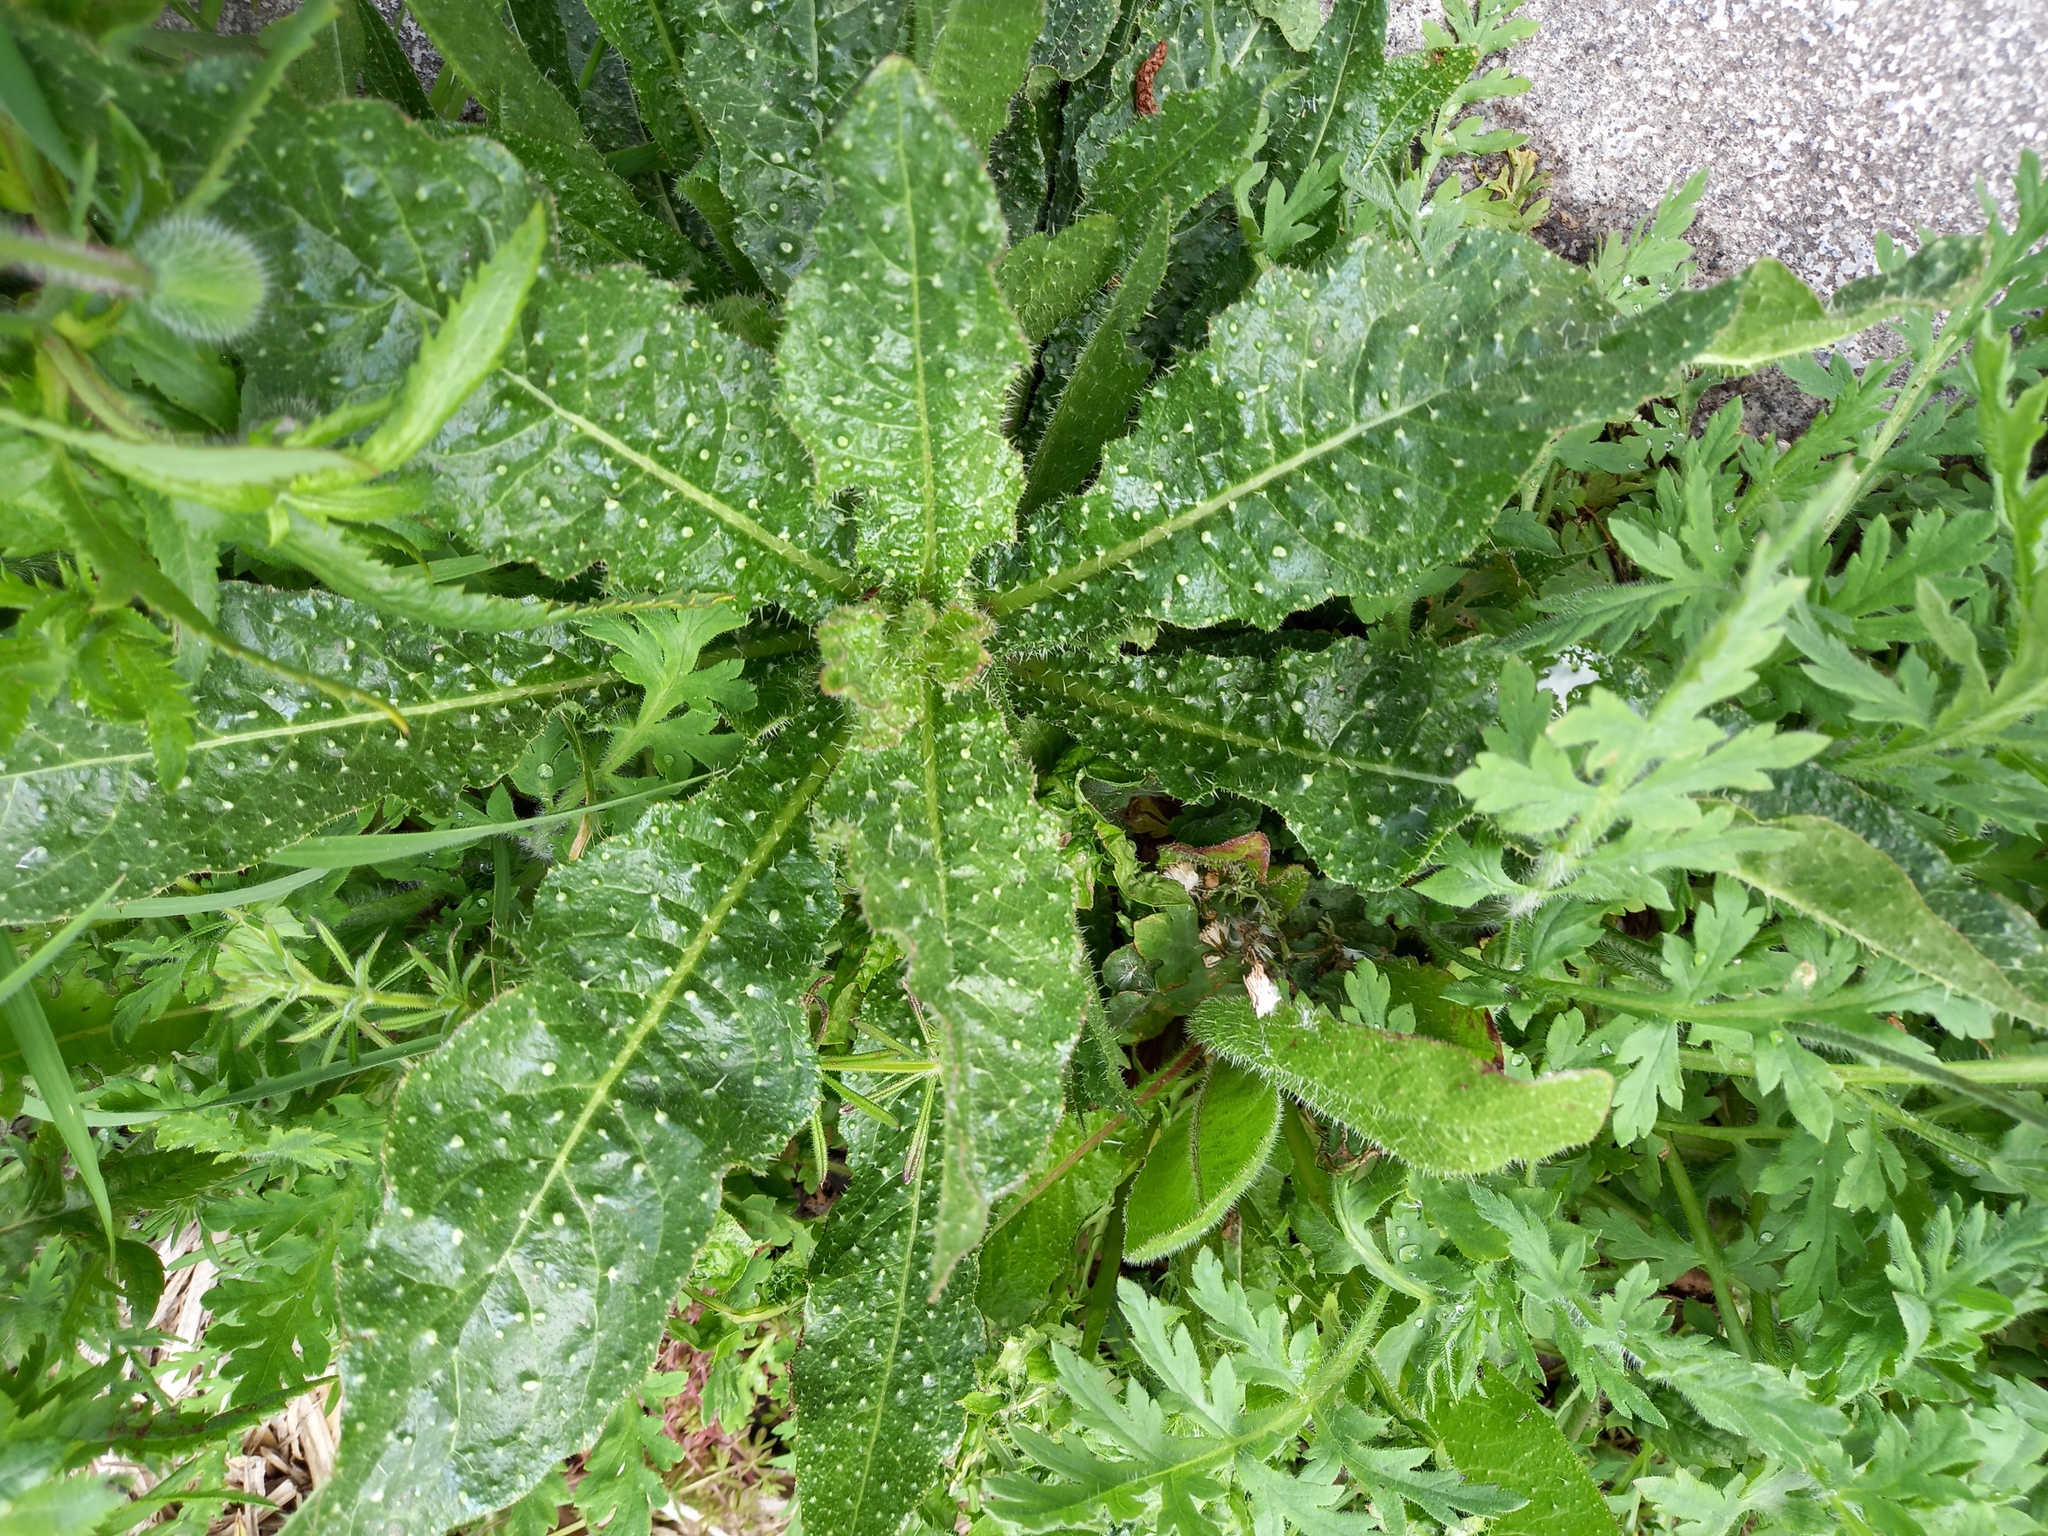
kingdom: Plantae
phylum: Tracheophyta
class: Magnoliopsida
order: Asterales
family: Asteraceae
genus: Helminthotheca
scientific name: Helminthotheca echioides
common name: Ox-tongue
